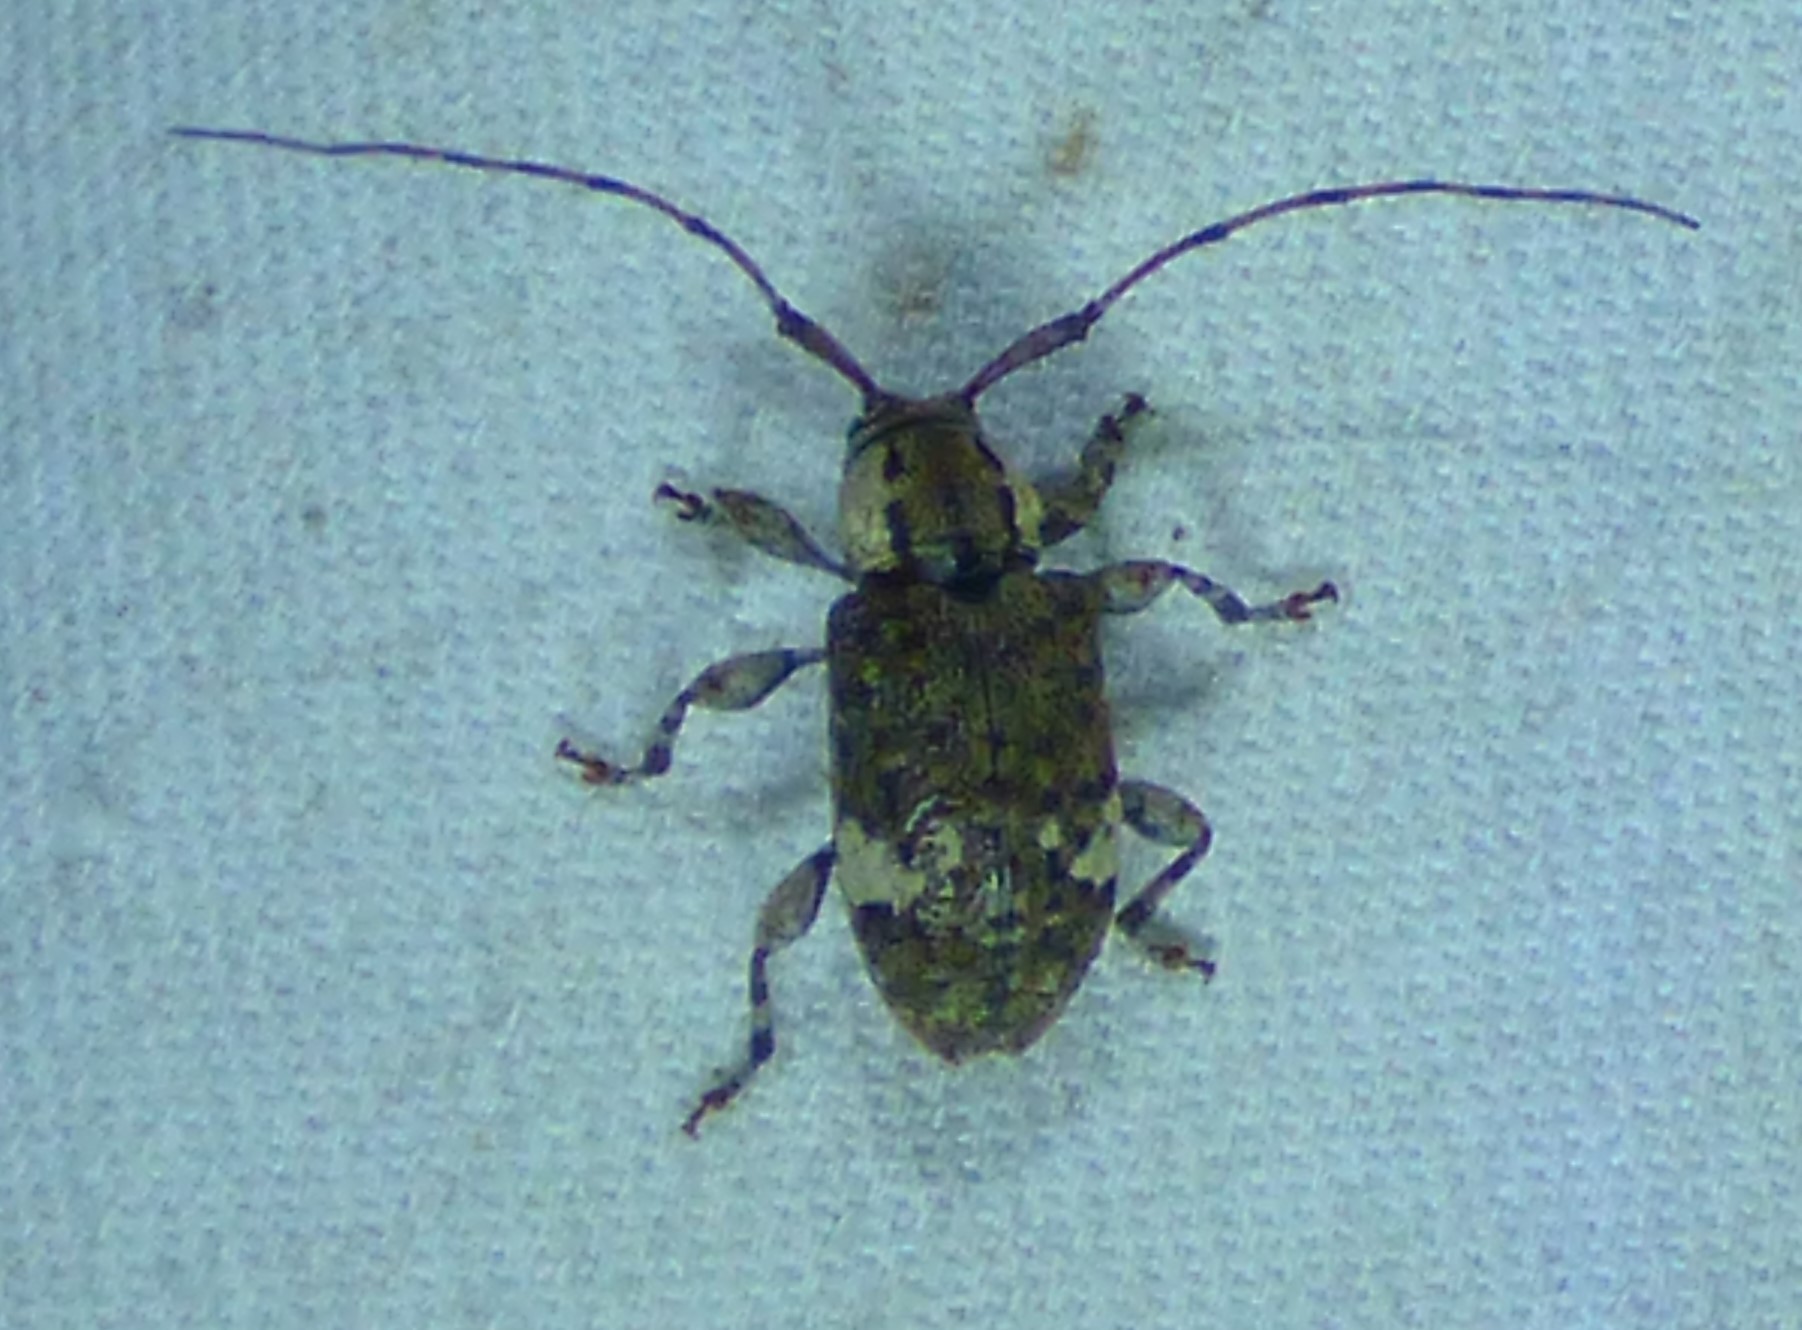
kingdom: Animalia
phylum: Arthropoda
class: Insecta
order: Coleoptera
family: Cerambycidae
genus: Astylopsis
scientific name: Astylopsis macula
